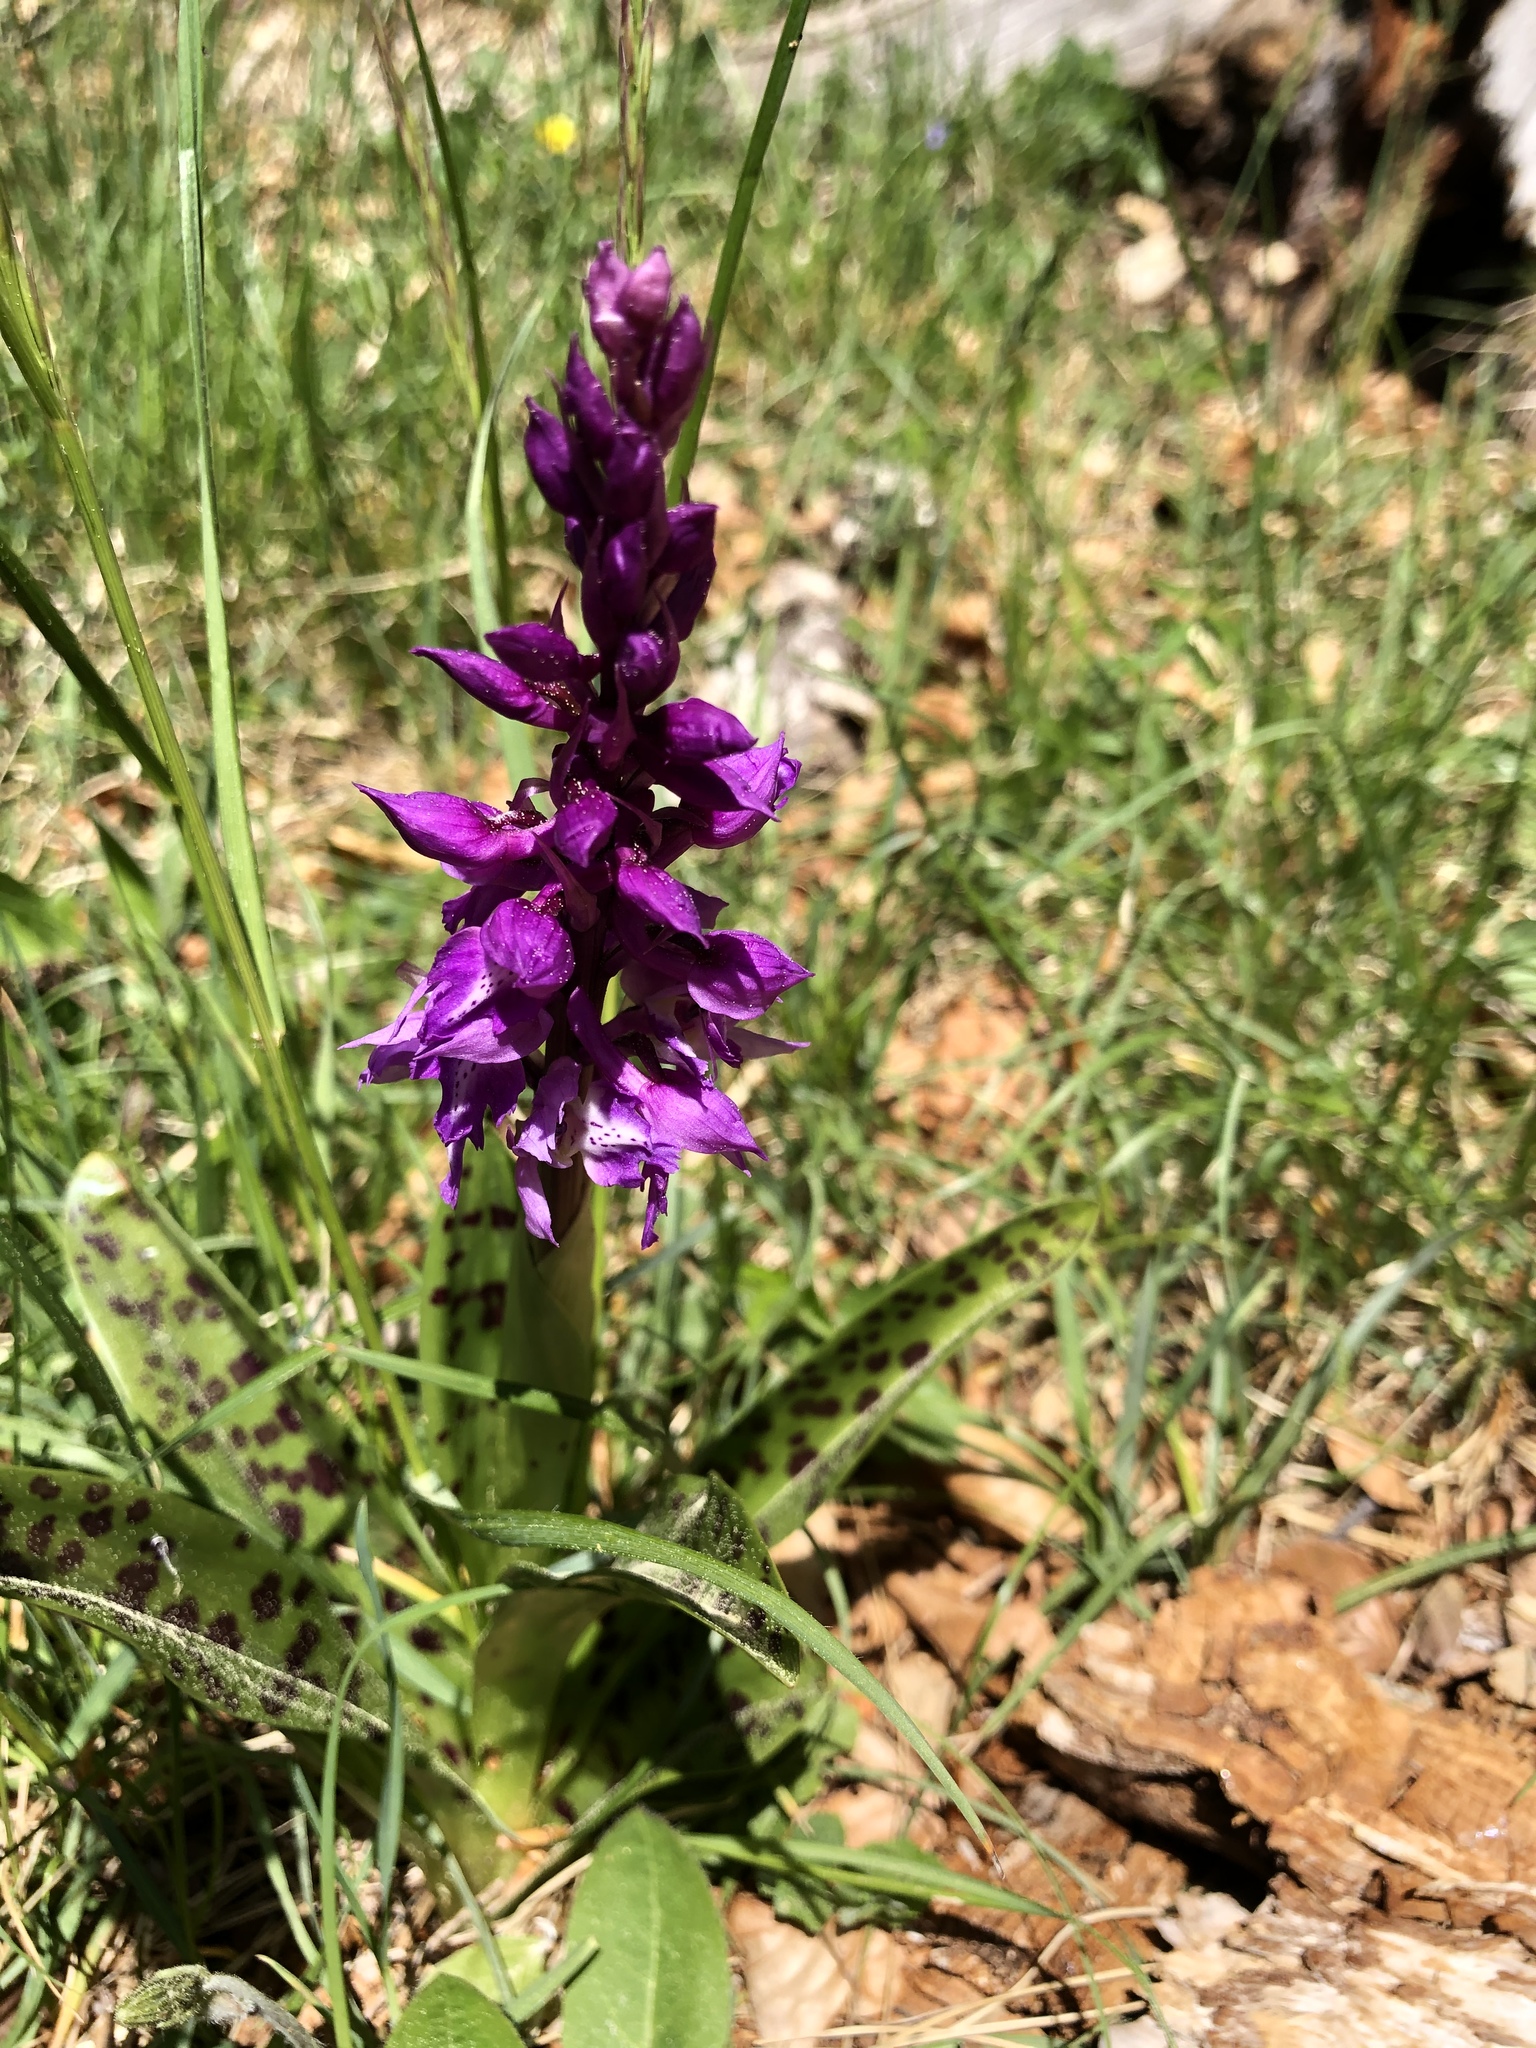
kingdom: Plantae
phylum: Tracheophyta
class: Liliopsida
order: Asparagales
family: Orchidaceae
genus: Orchis
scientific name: Orchis mascula
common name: Early-purple orchid
